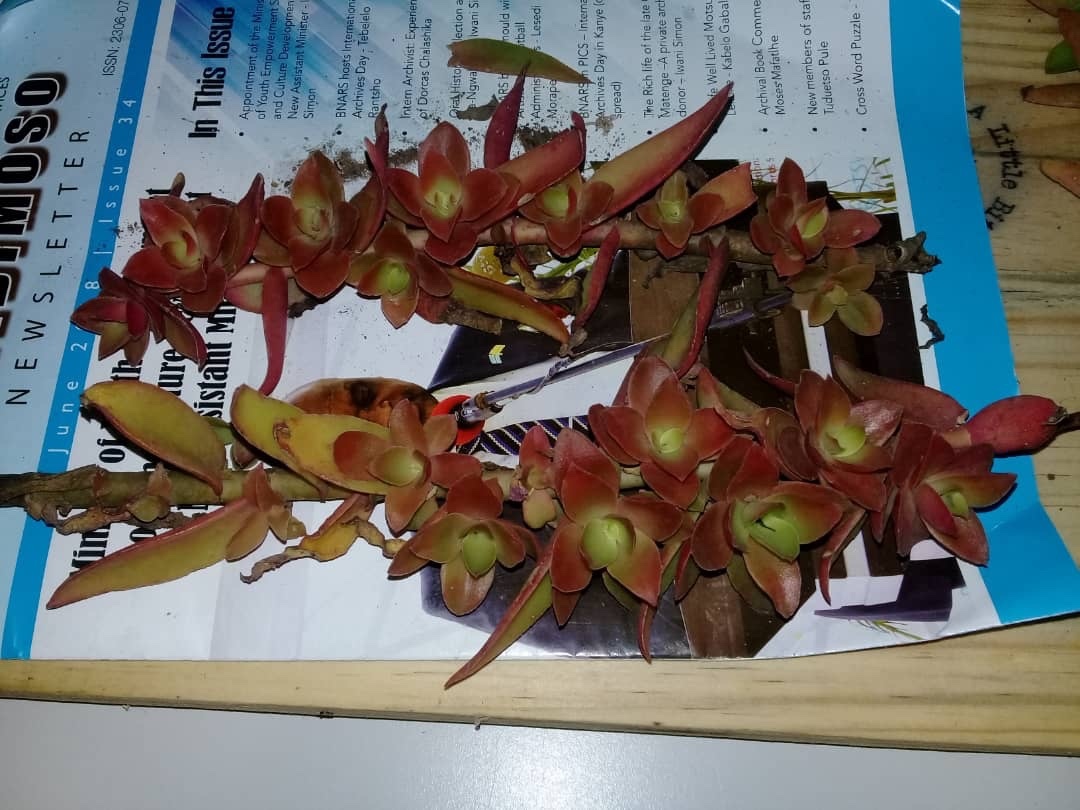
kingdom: Plantae
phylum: Tracheophyta
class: Magnoliopsida
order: Saxifragales
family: Crassulaceae
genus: Crassula
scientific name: Crassula capitella
